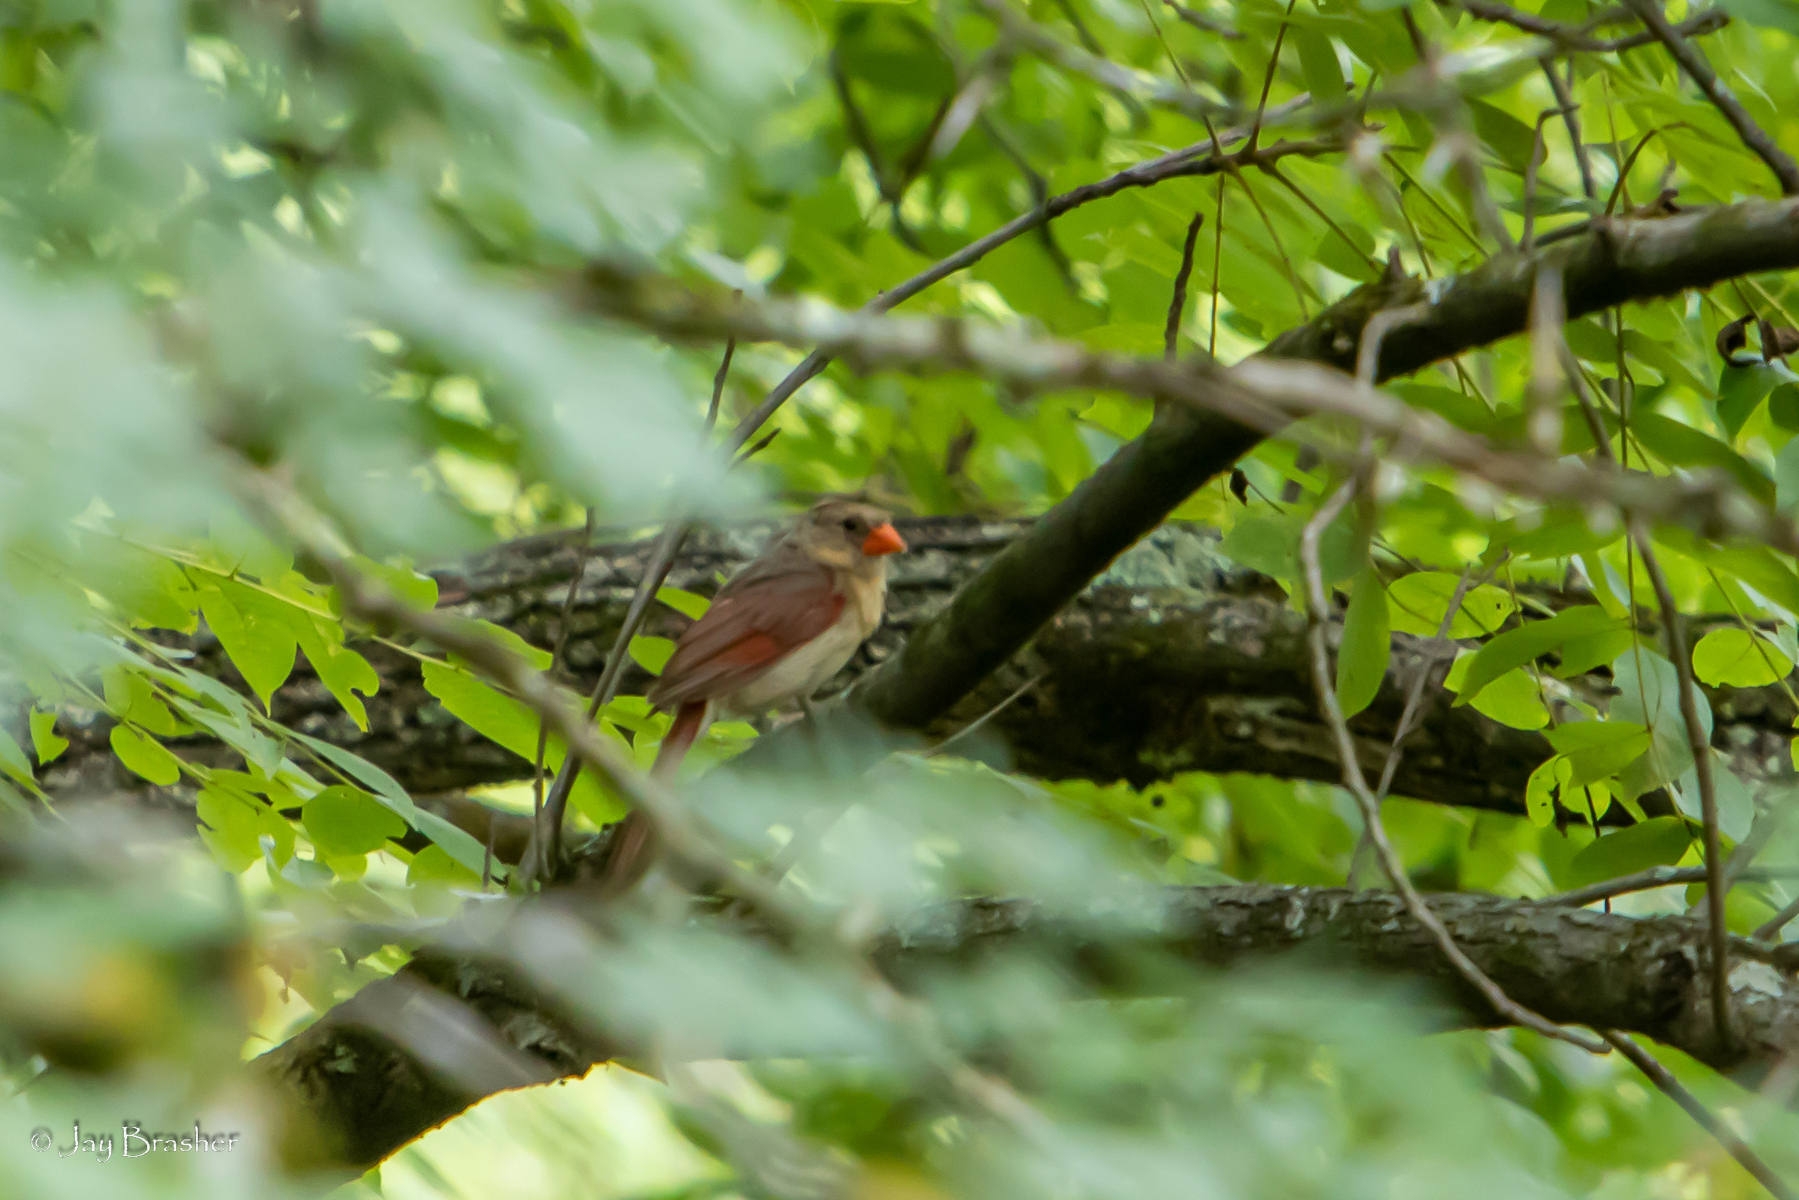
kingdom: Animalia
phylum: Chordata
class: Aves
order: Passeriformes
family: Cardinalidae
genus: Cardinalis
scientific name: Cardinalis cardinalis
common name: Northern cardinal
